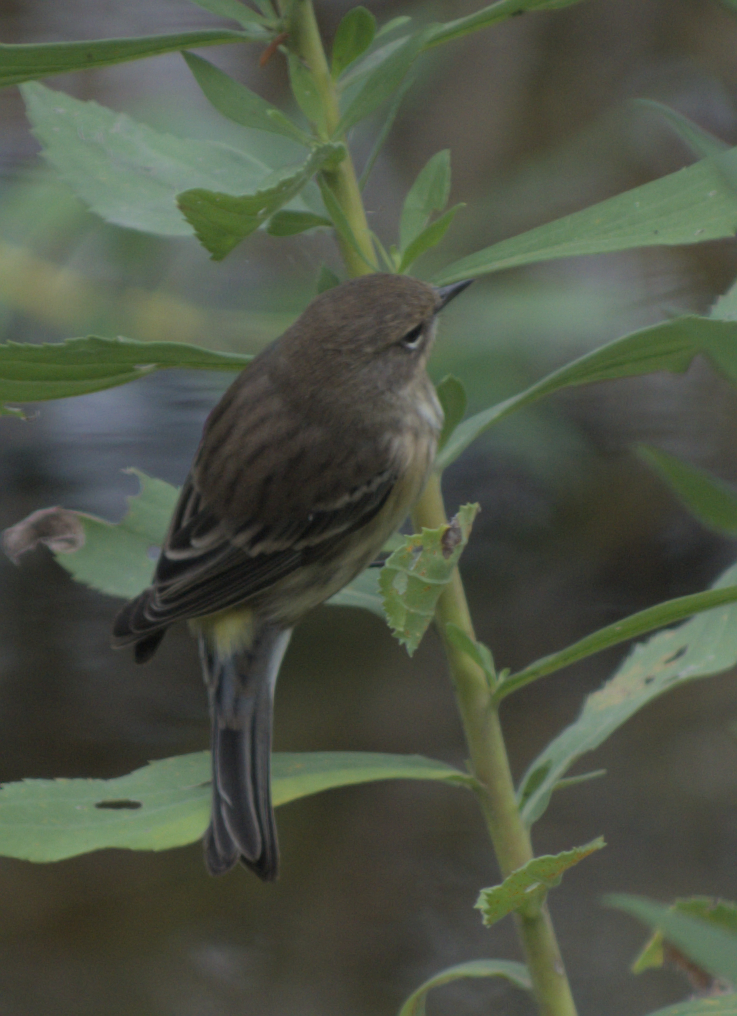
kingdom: Animalia
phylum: Chordata
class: Aves
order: Passeriformes
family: Parulidae
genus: Setophaga
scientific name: Setophaga coronata
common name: Myrtle warbler
